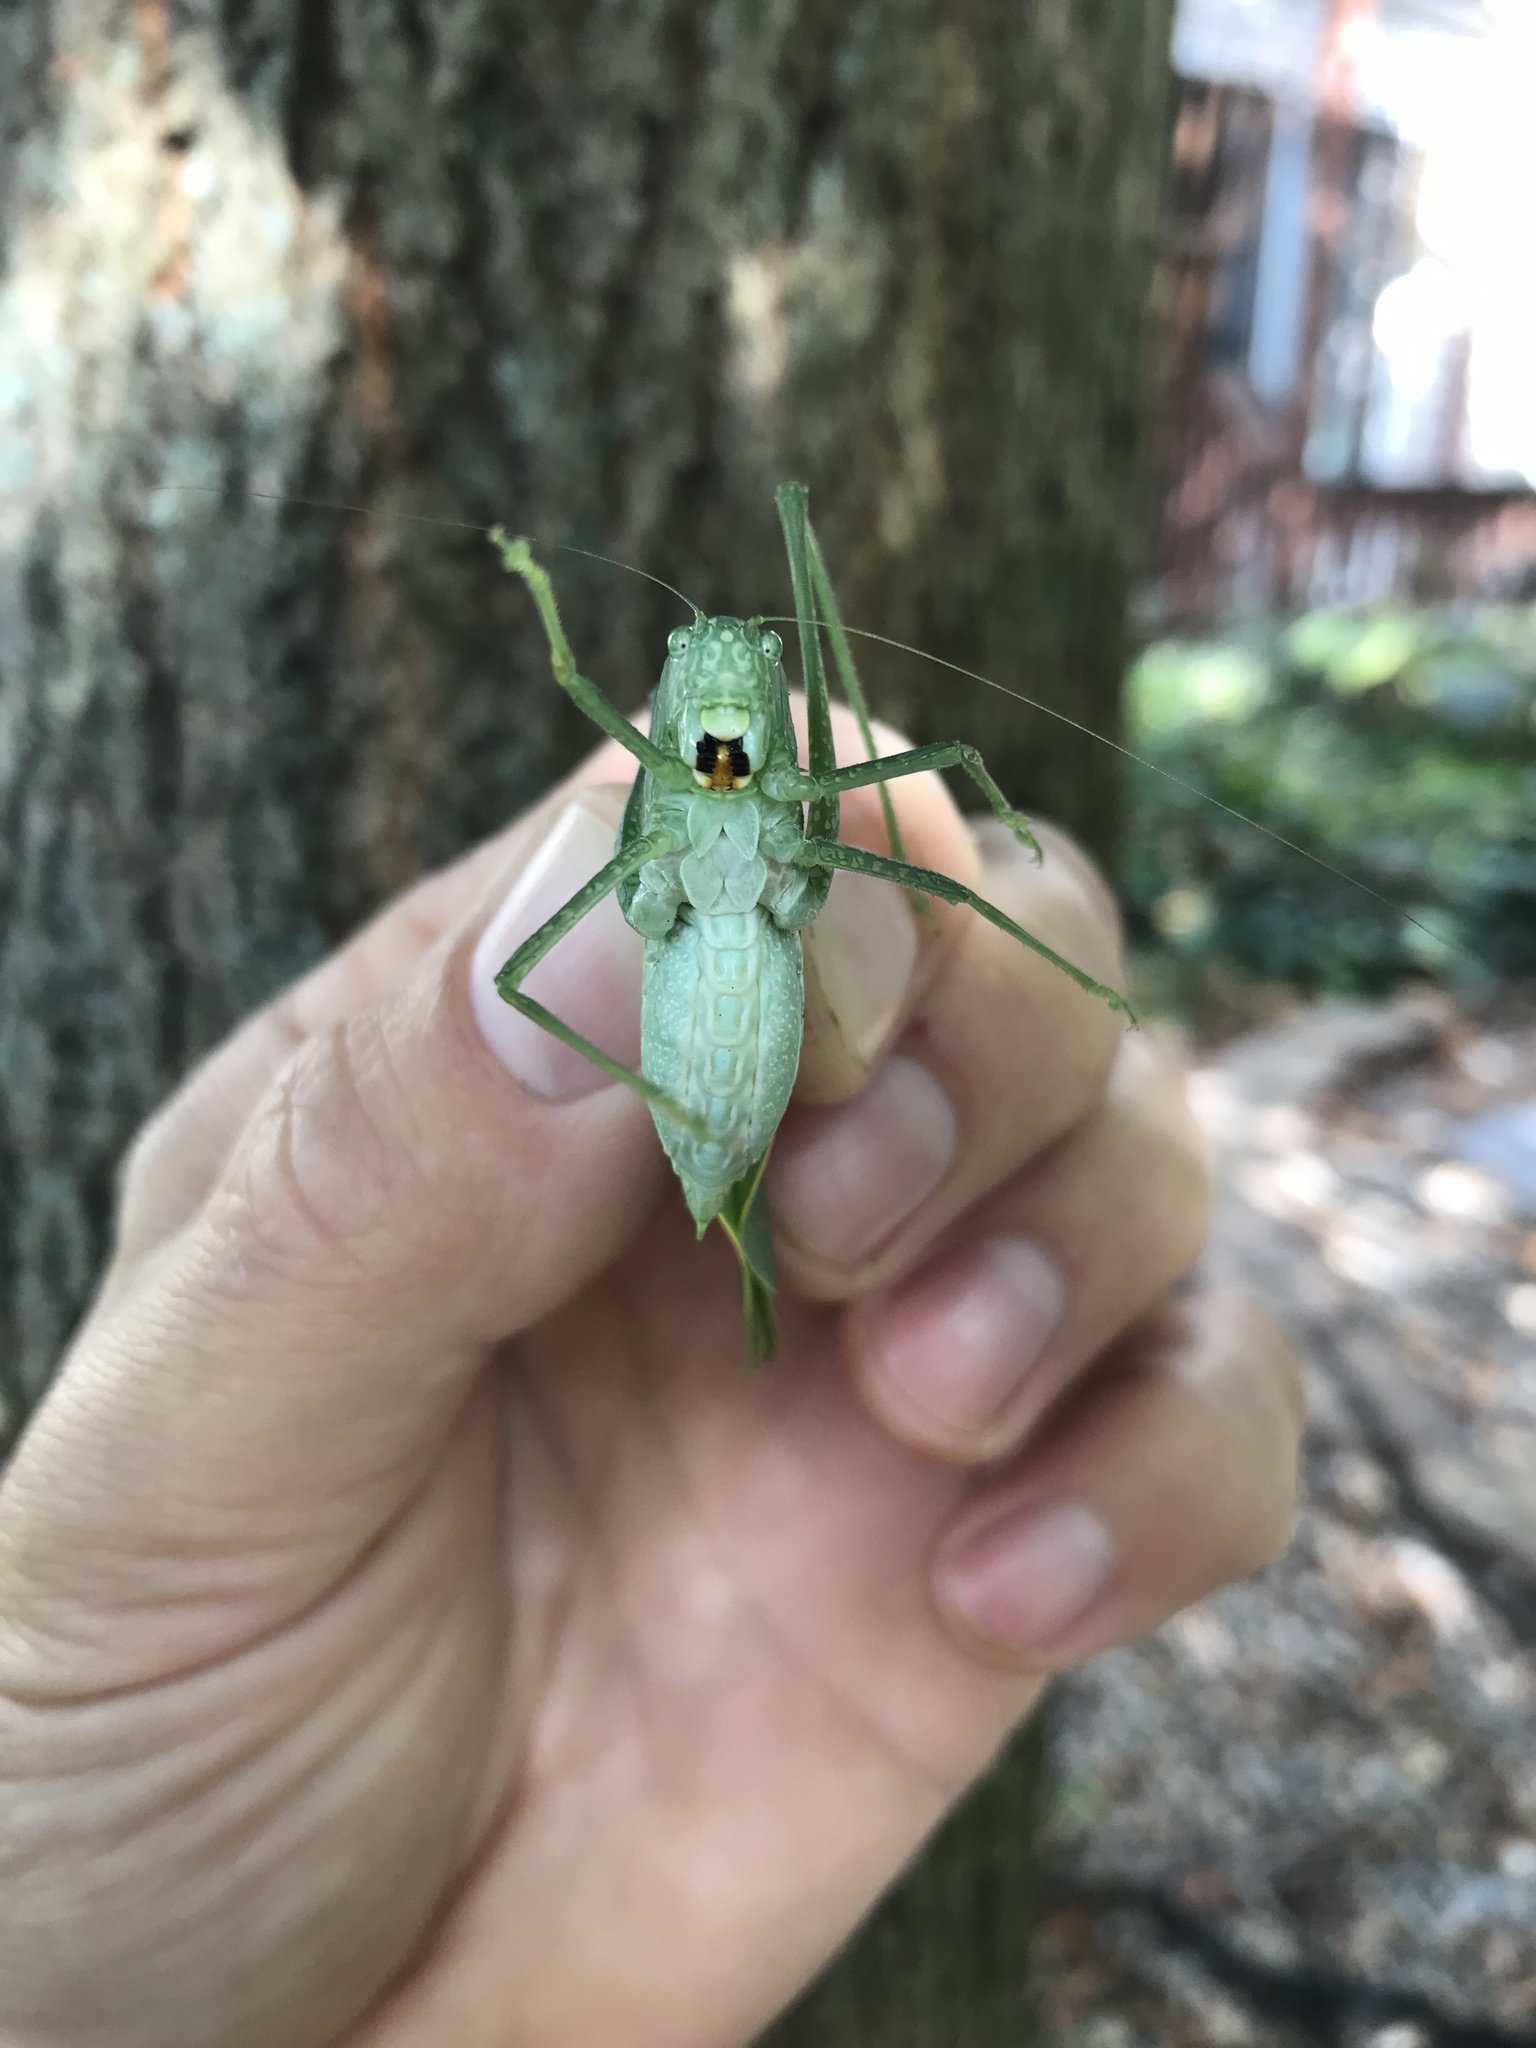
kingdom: Animalia
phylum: Arthropoda
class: Insecta
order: Orthoptera
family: Tettigoniidae
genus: Microcentrum
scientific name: Microcentrum rhombifolium
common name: Broad-winged katydid
